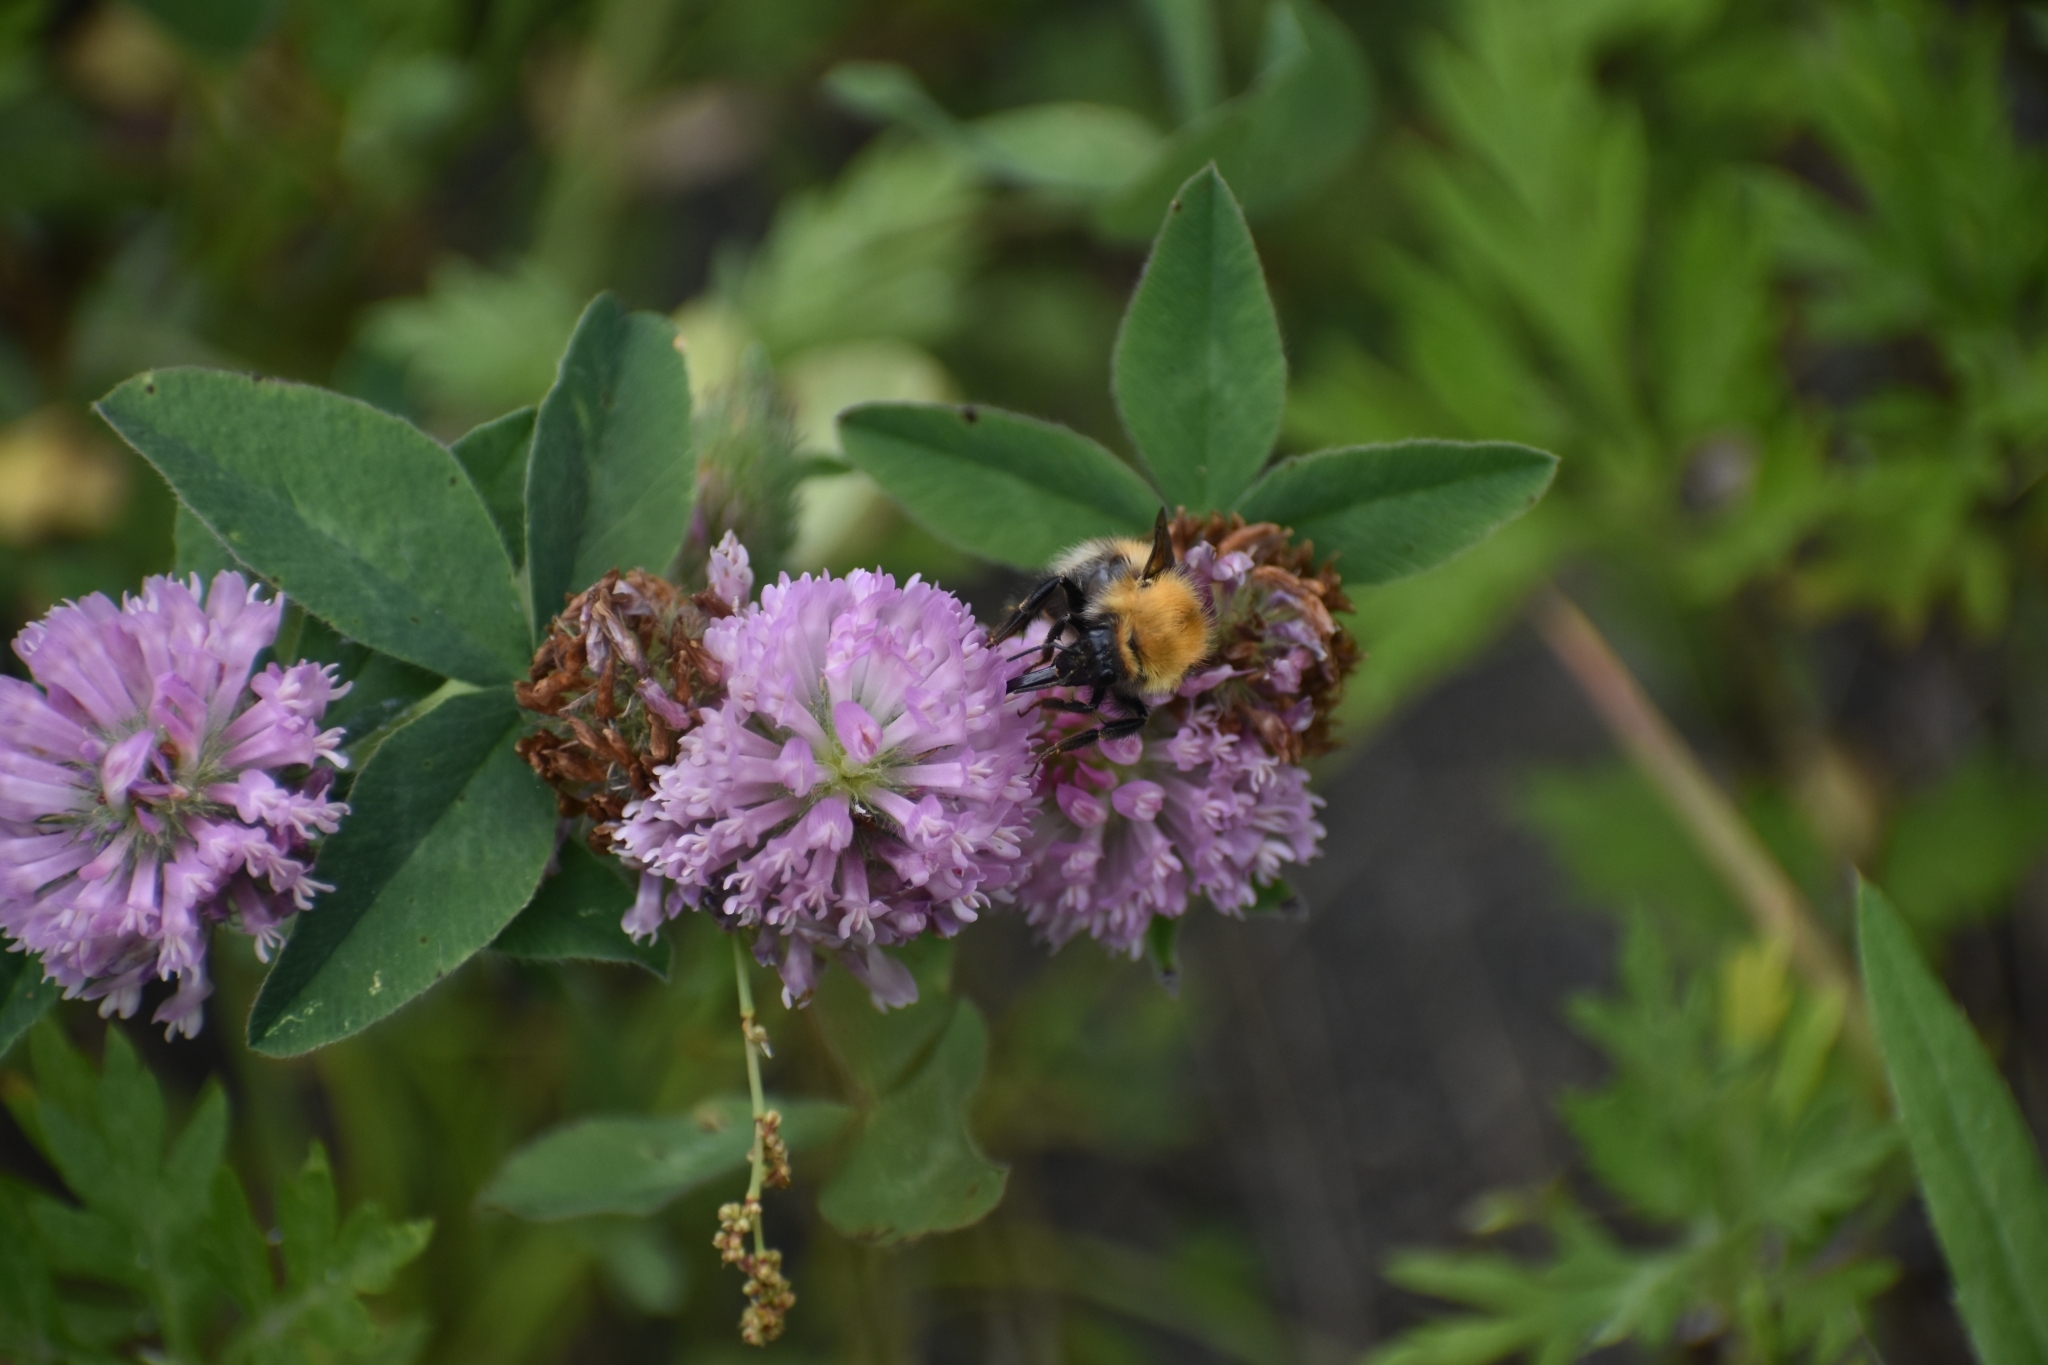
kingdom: Animalia
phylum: Arthropoda
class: Insecta
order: Hymenoptera
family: Apidae
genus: Bombus
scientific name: Bombus consobrinus
